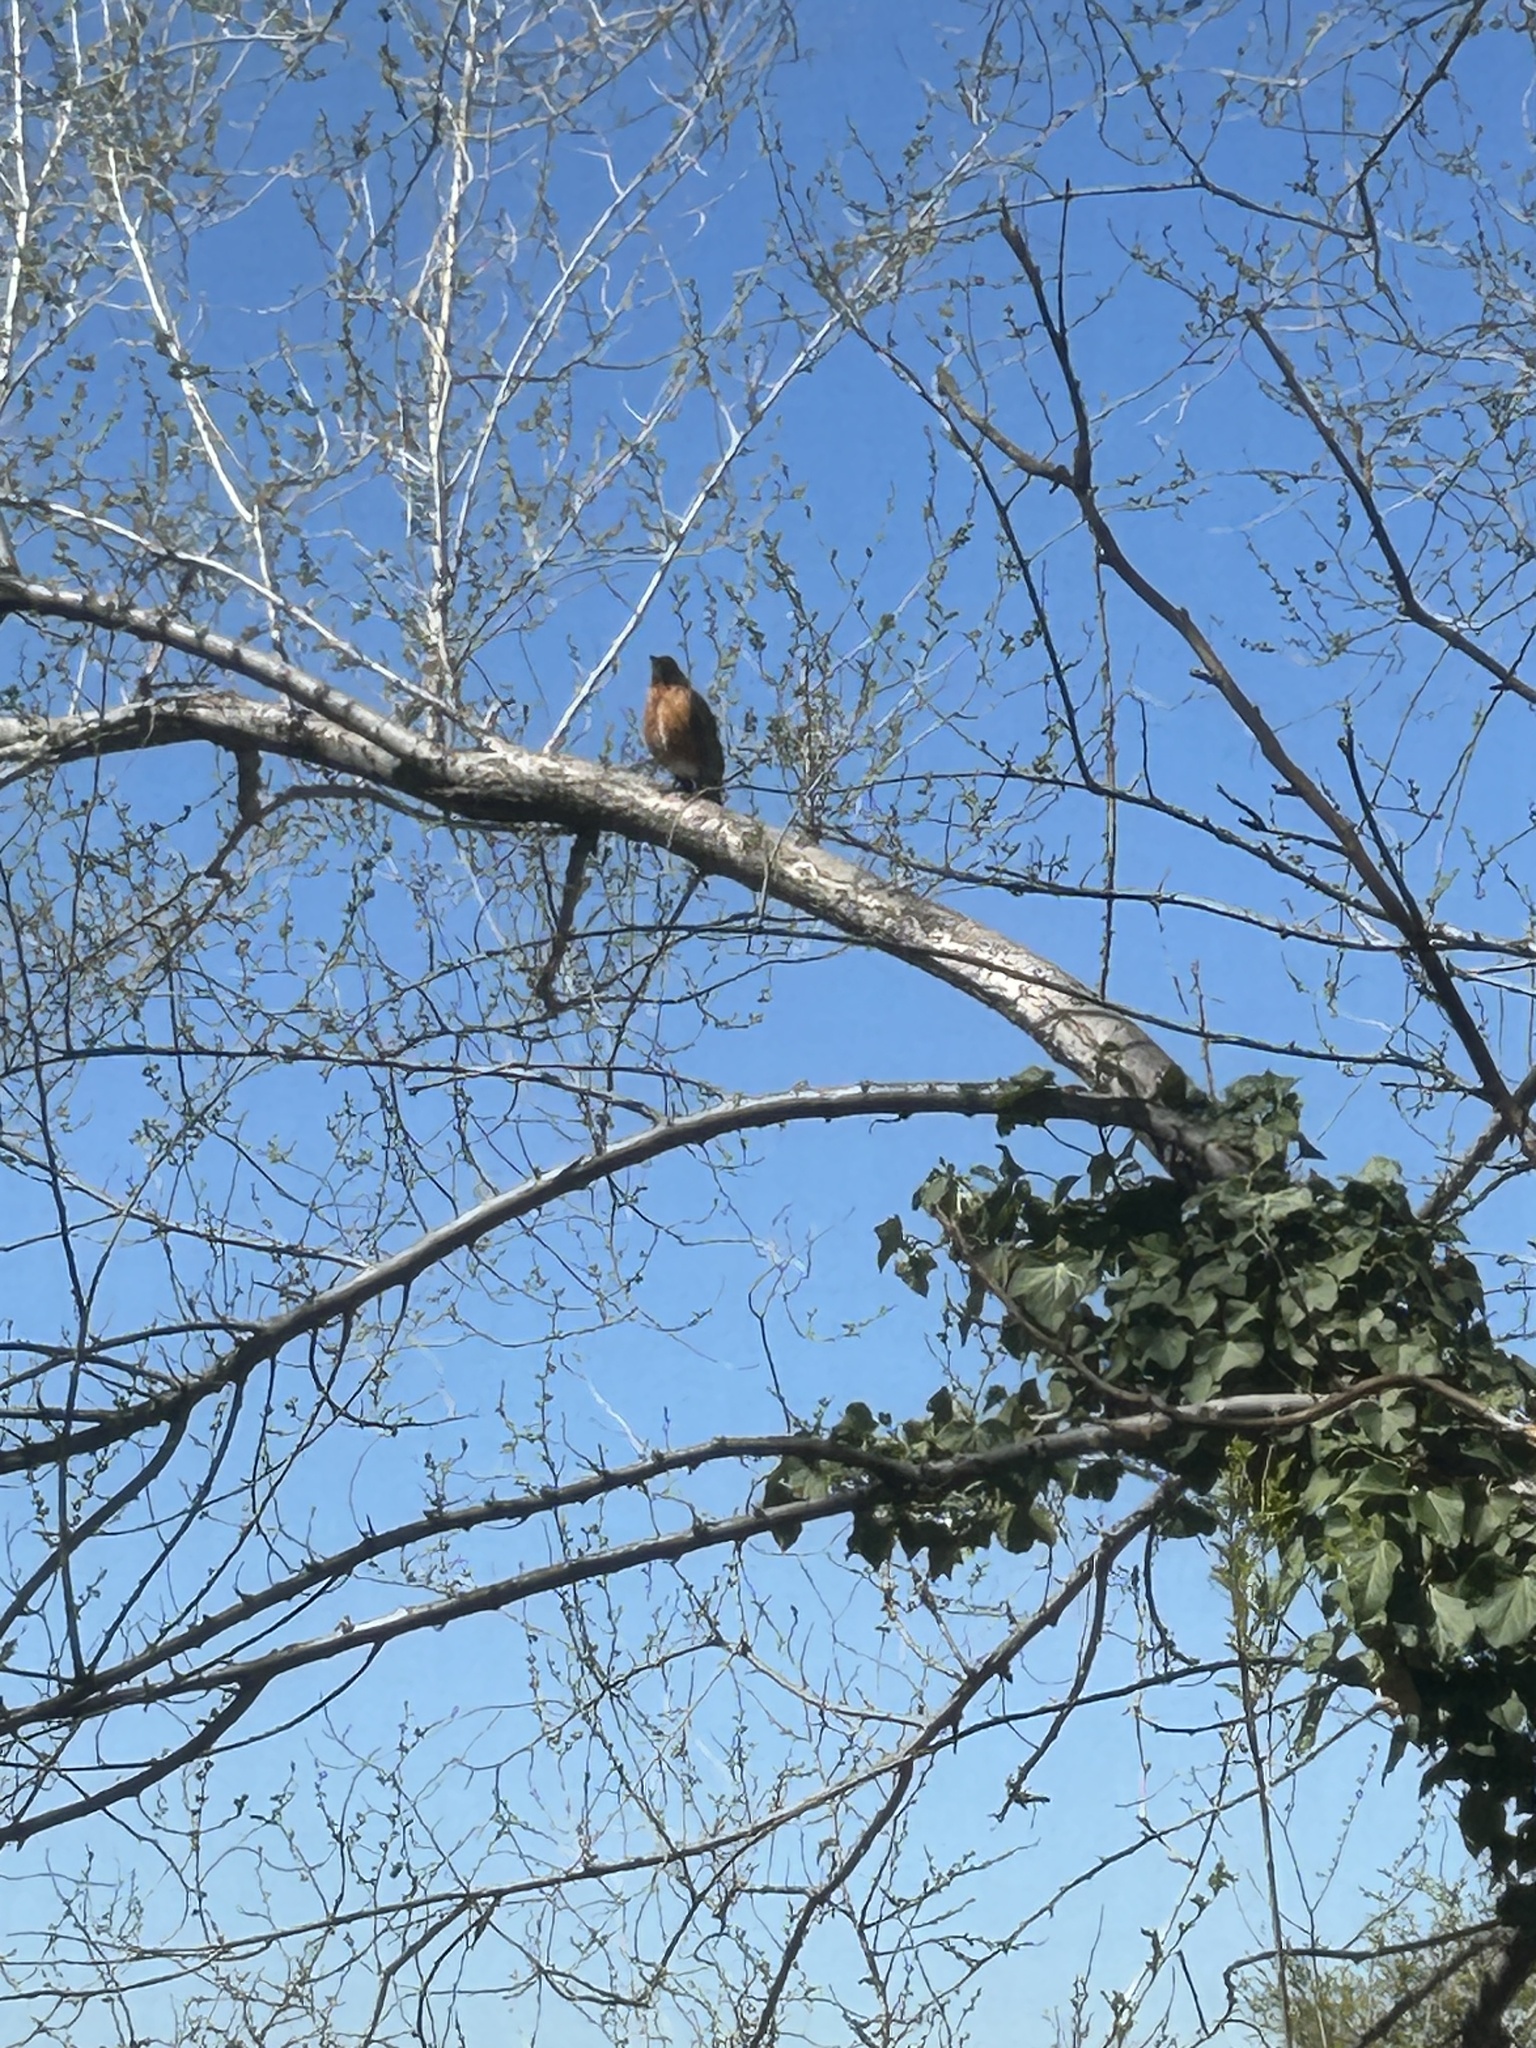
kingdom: Animalia
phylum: Chordata
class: Aves
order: Passeriformes
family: Turdidae
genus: Turdus
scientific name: Turdus migratorius
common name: American robin
